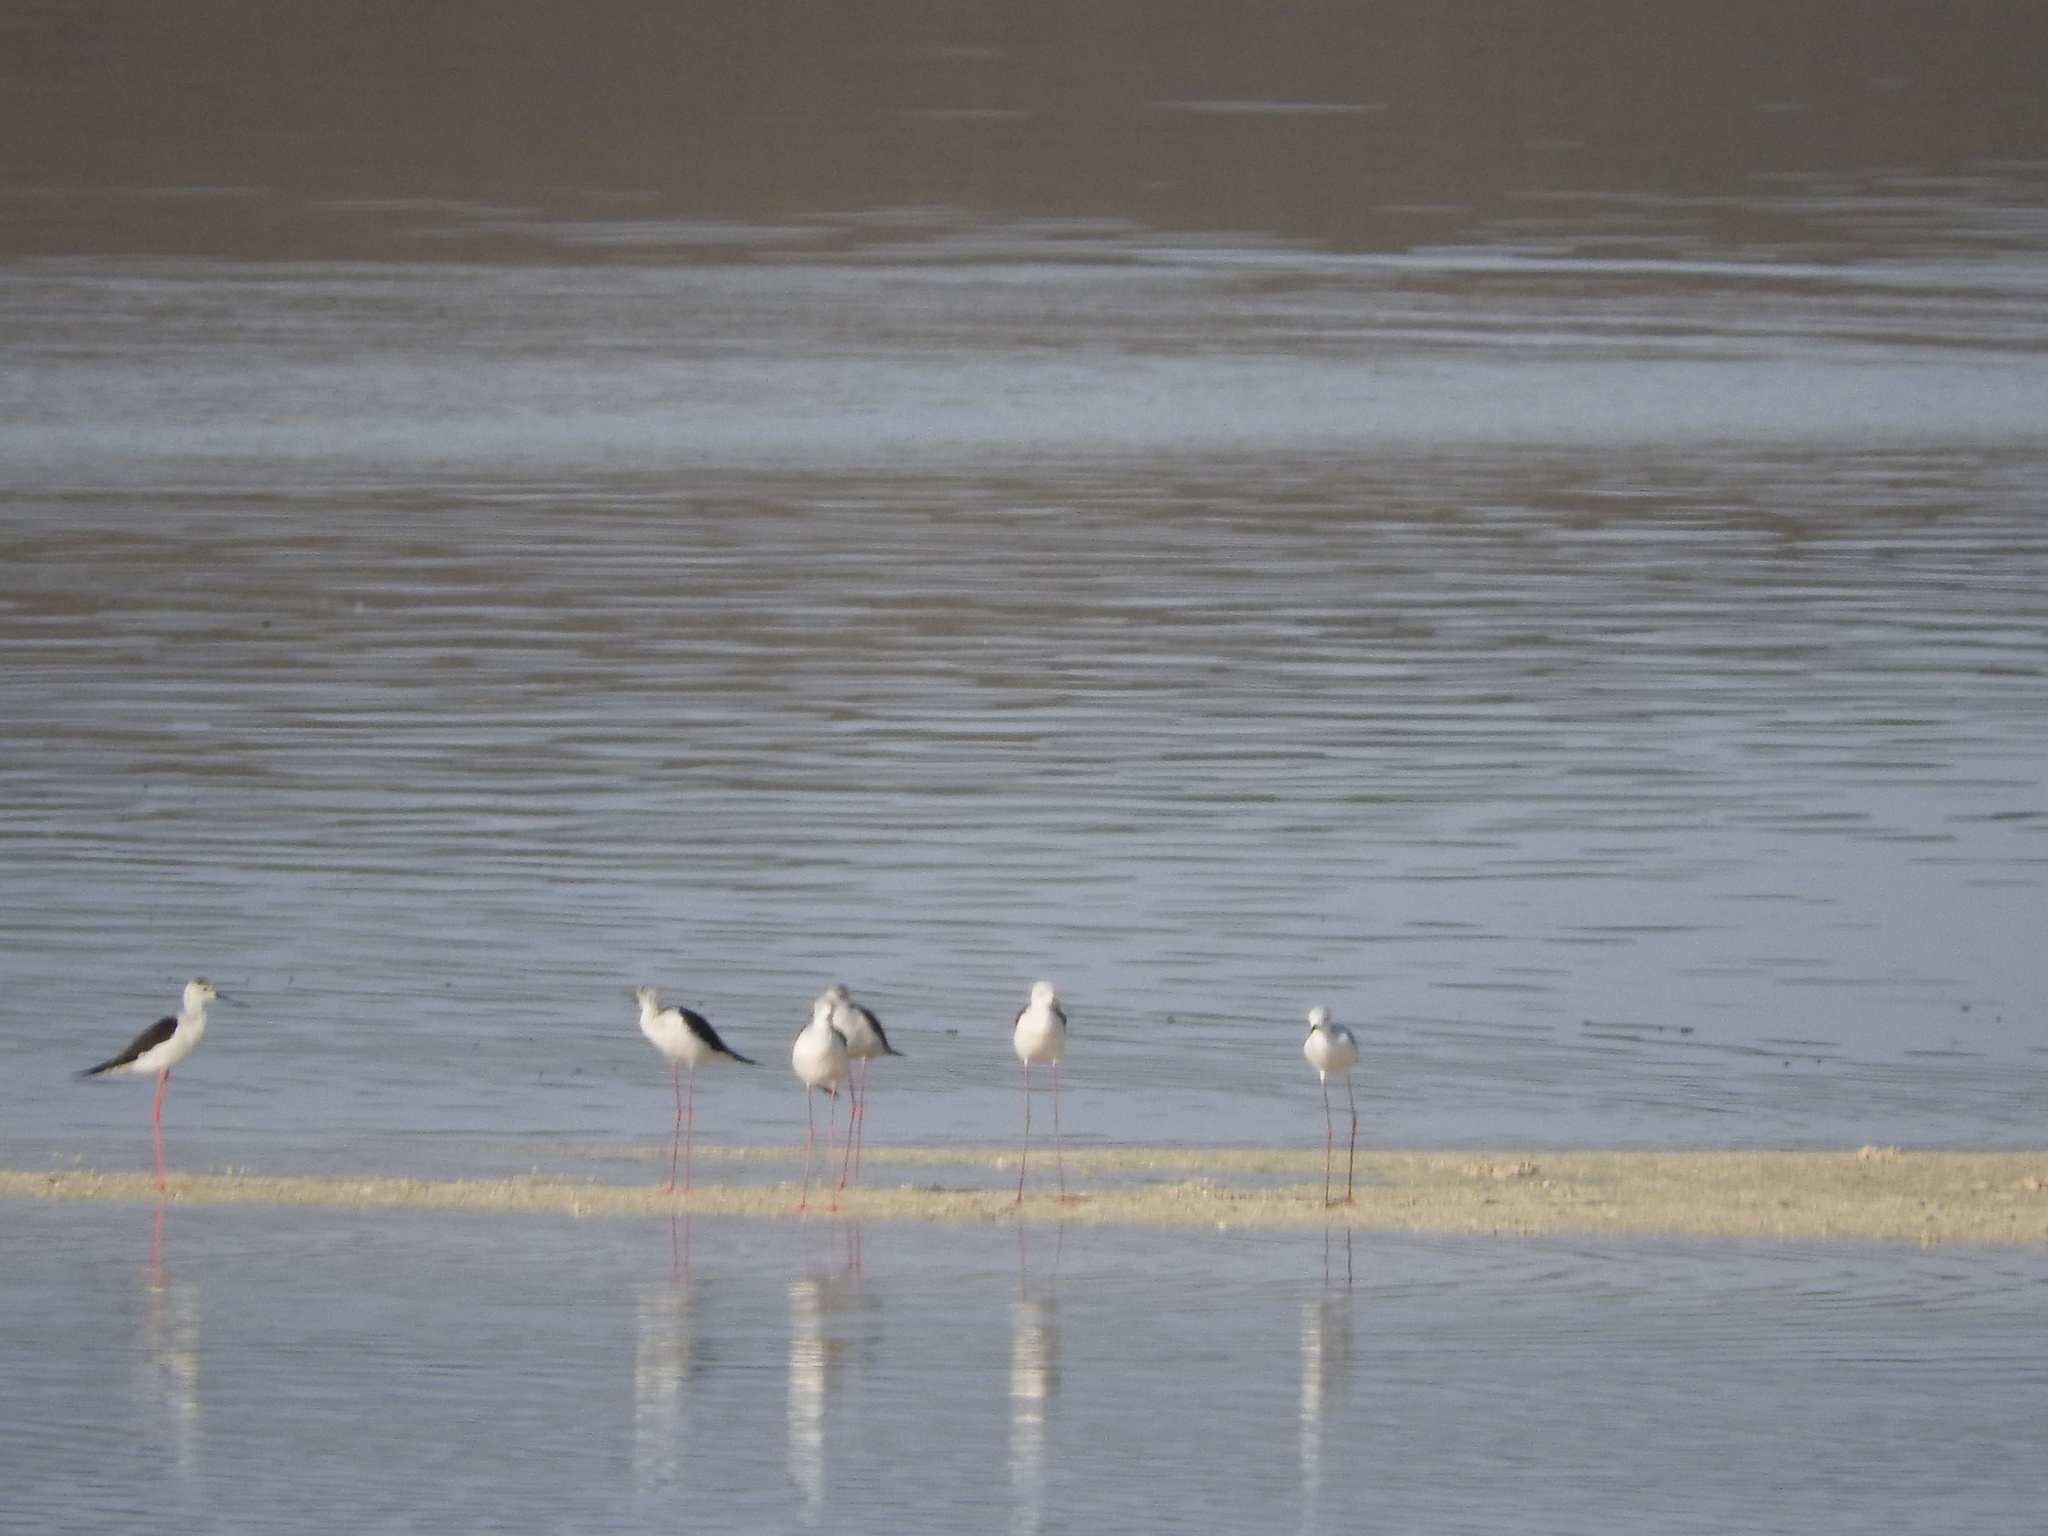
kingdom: Animalia
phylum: Chordata
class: Aves
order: Charadriiformes
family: Recurvirostridae
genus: Himantopus
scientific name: Himantopus himantopus
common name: Black-winged stilt
